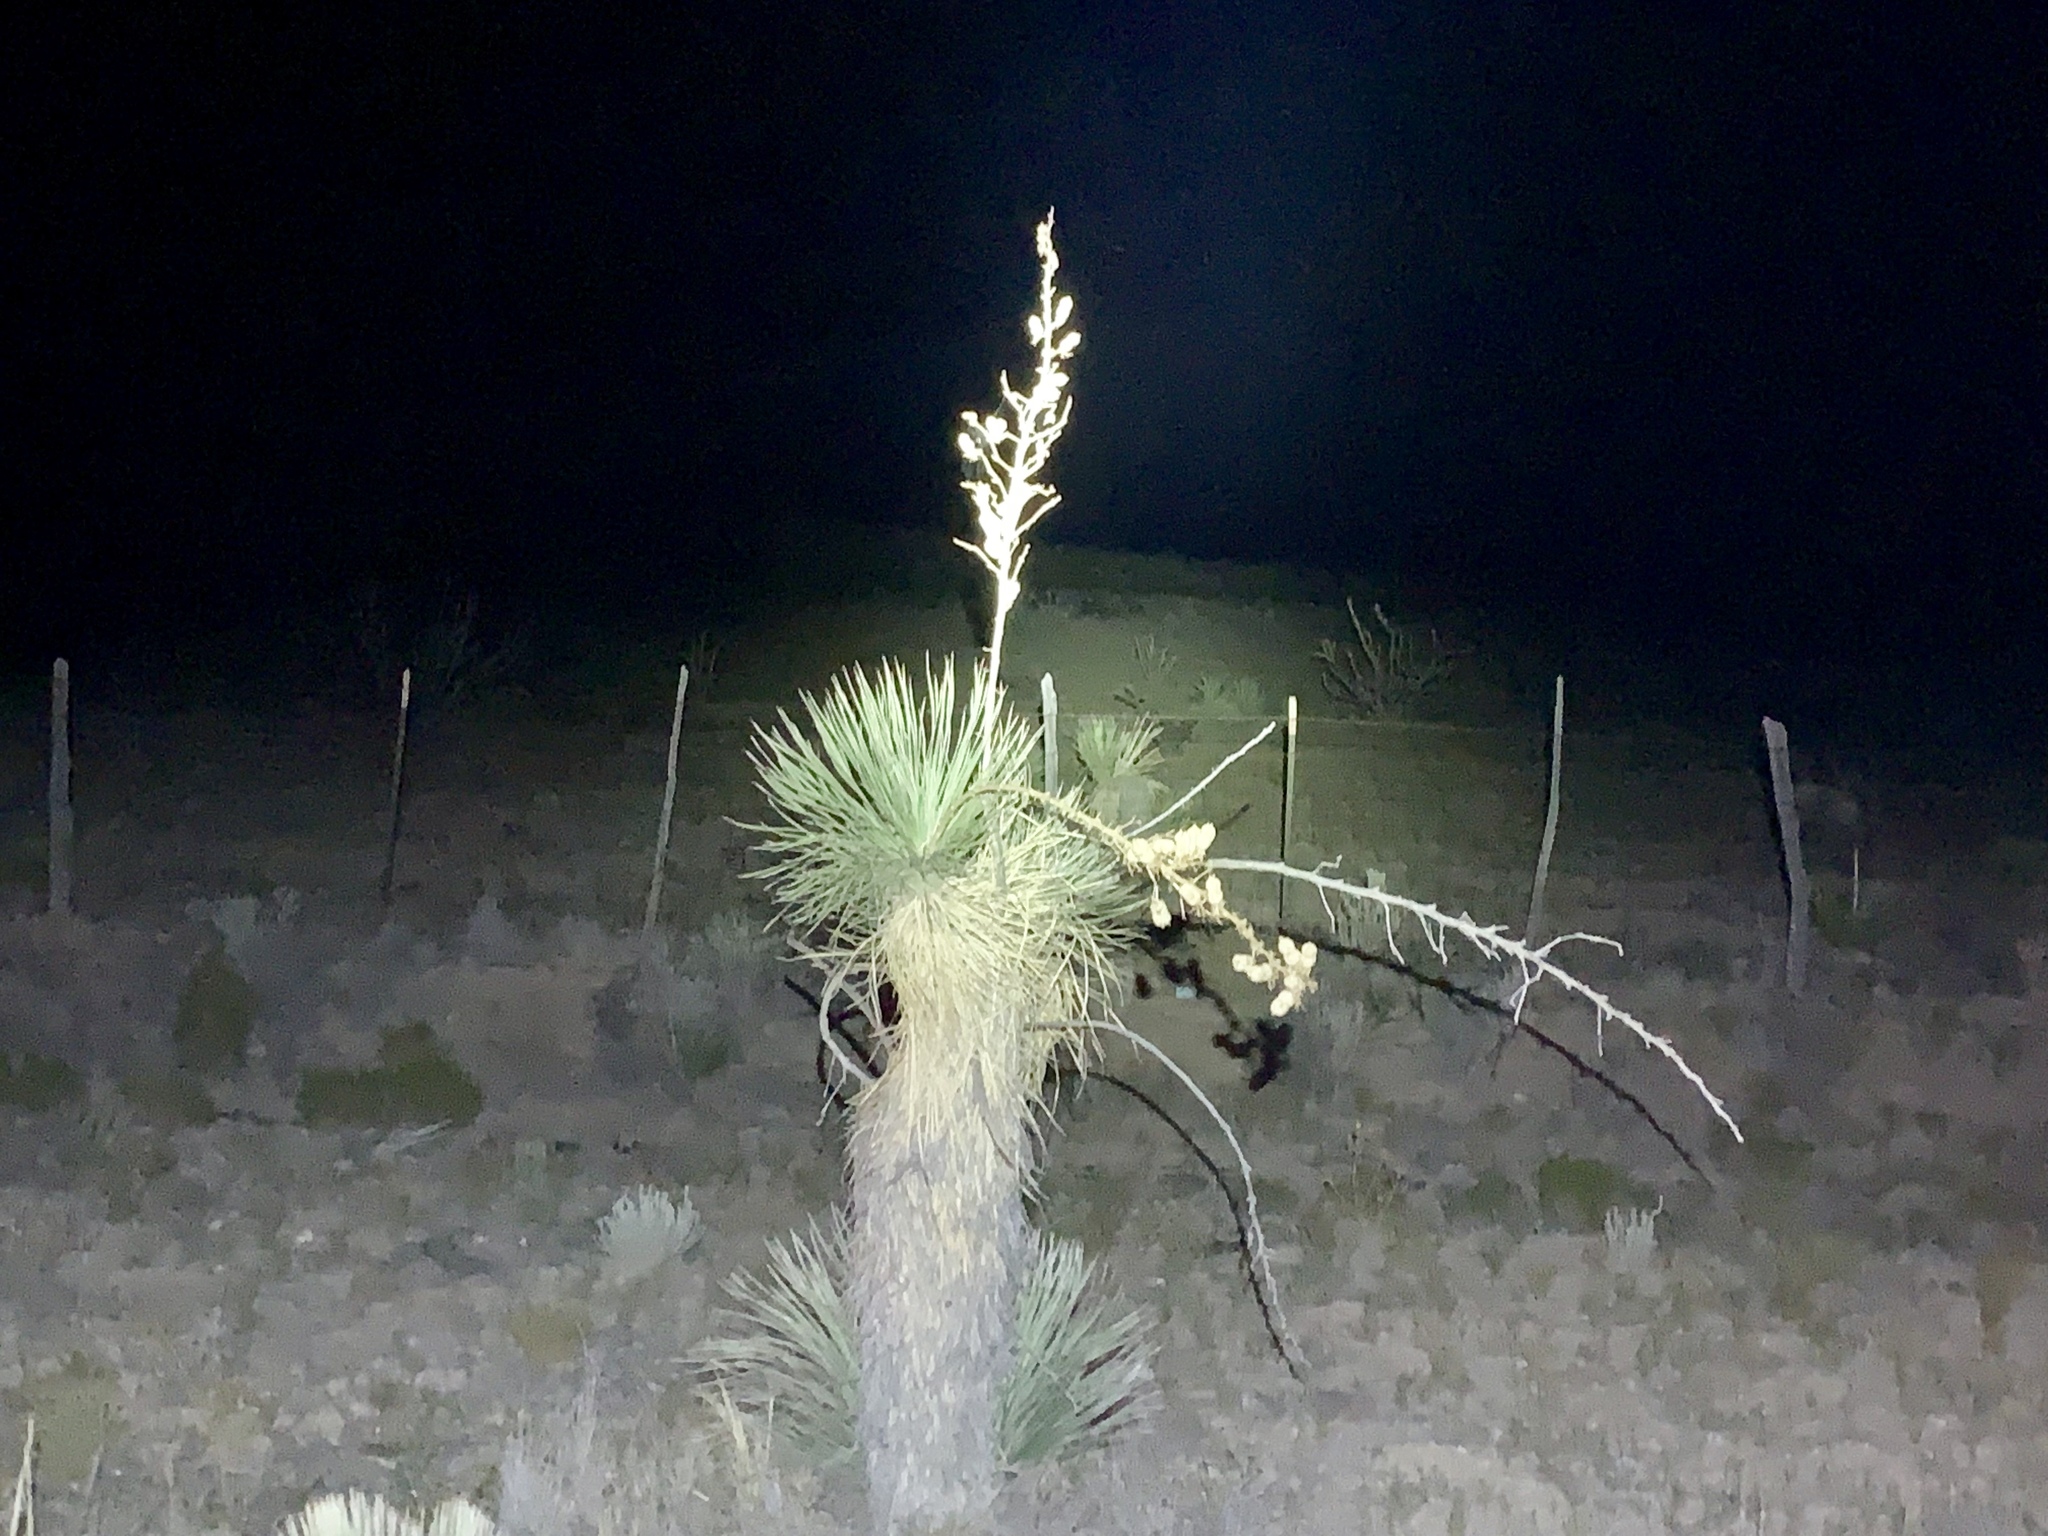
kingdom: Plantae
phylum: Tracheophyta
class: Liliopsida
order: Asparagales
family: Asparagaceae
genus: Yucca
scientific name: Yucca elata
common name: Palmella
